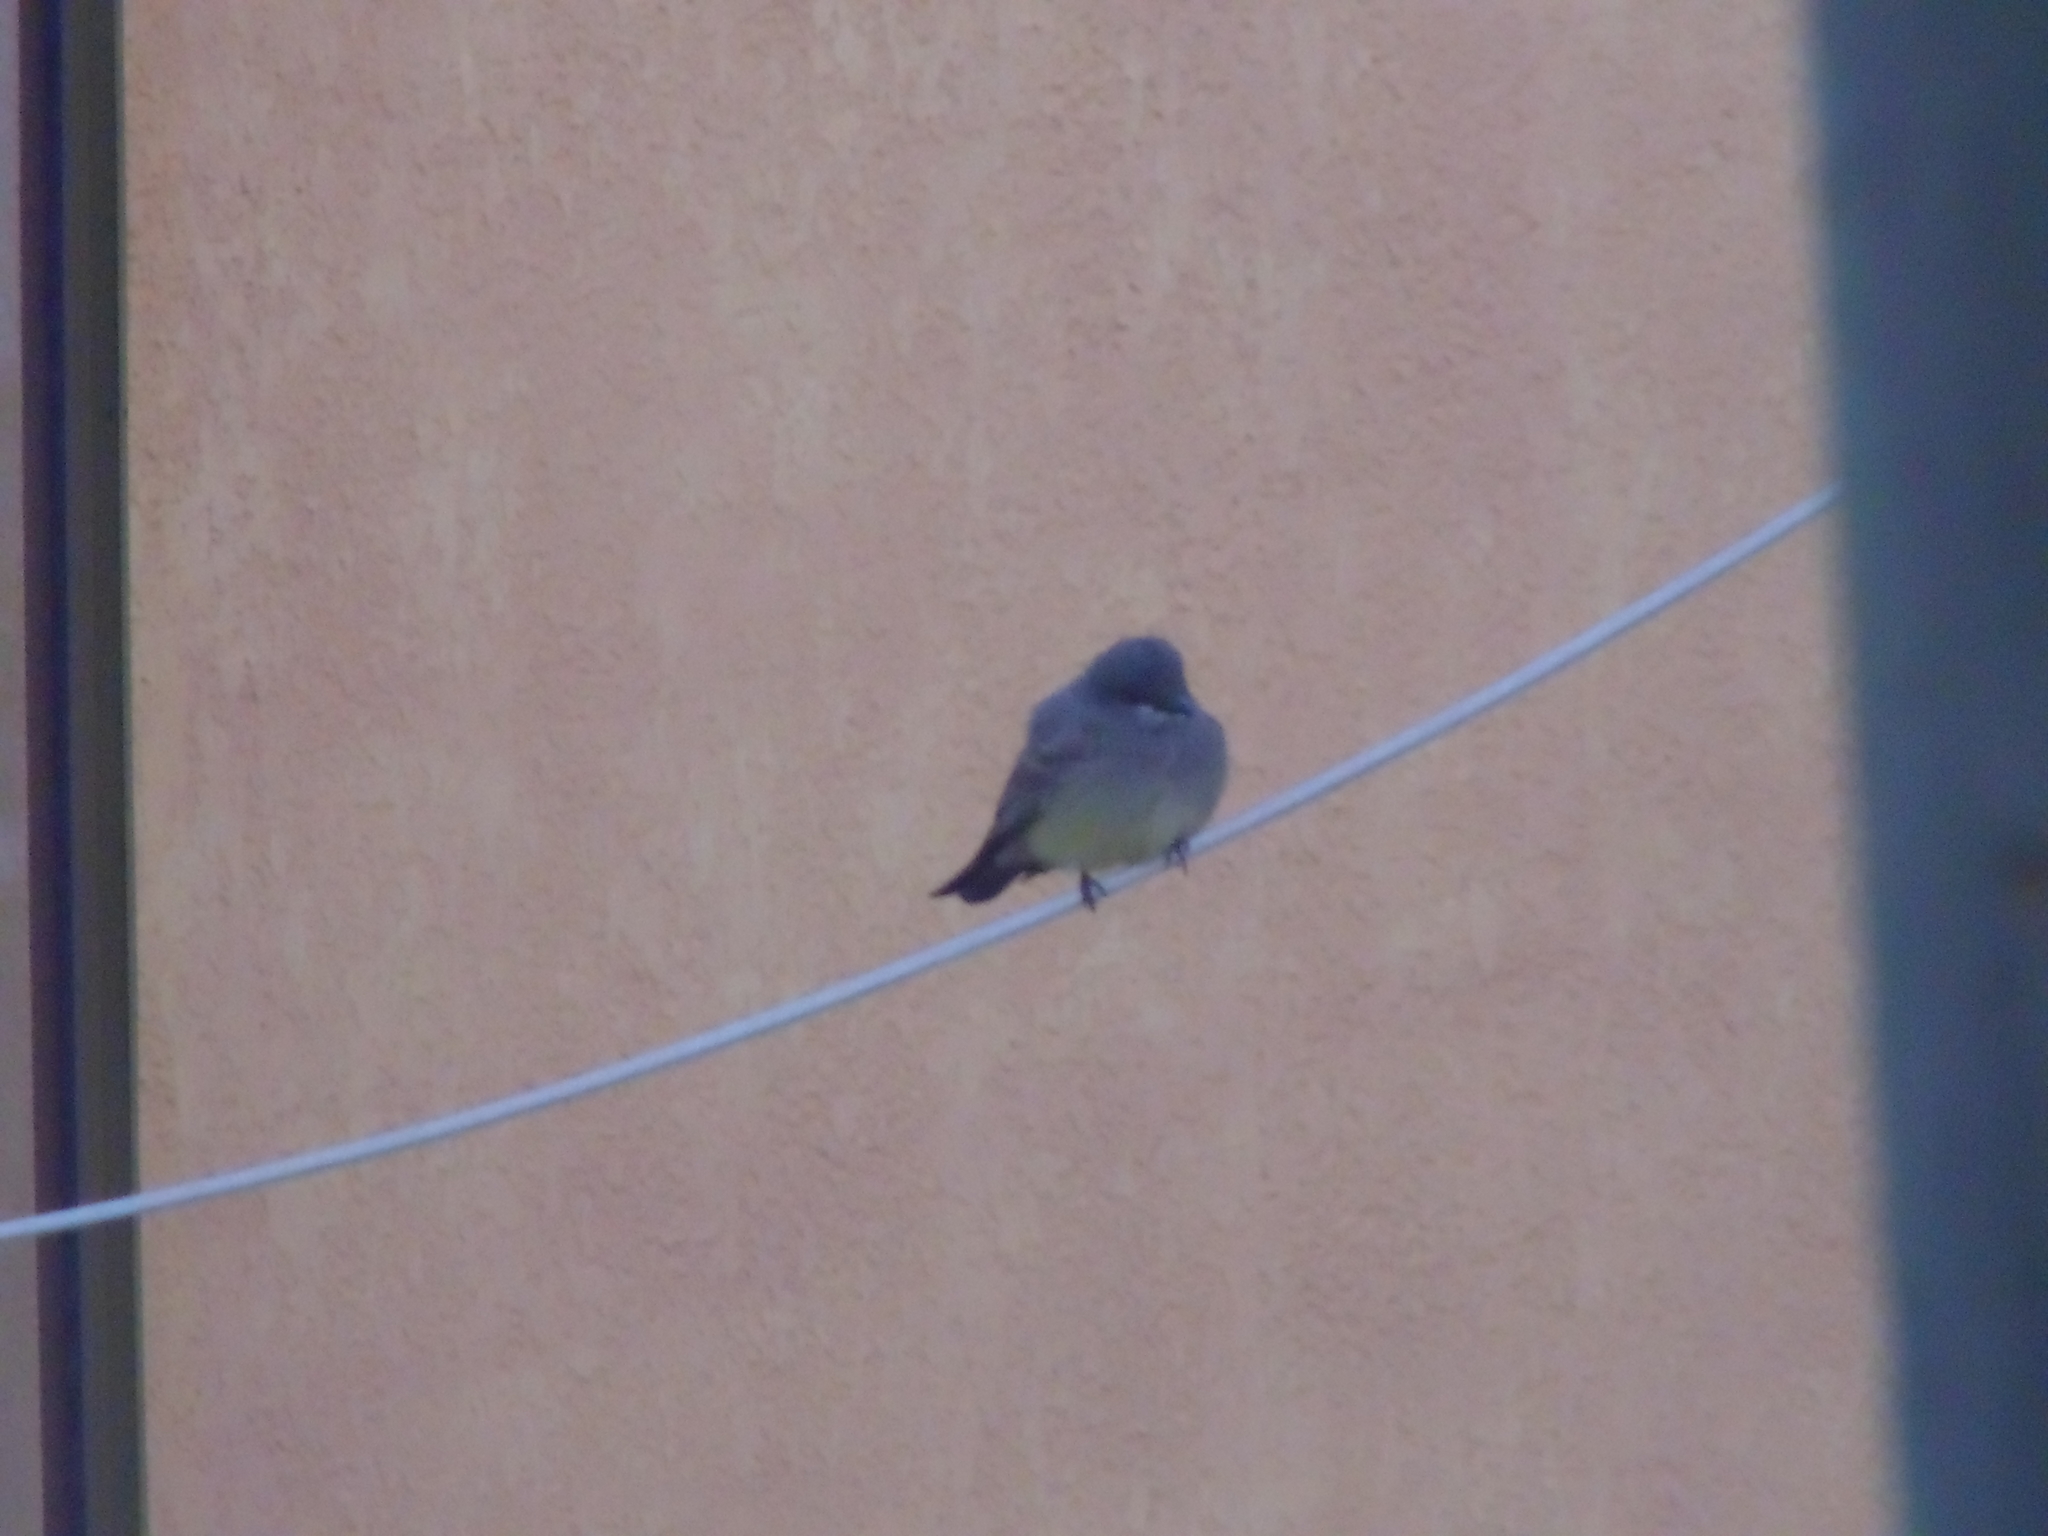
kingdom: Animalia
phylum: Chordata
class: Aves
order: Passeriformes
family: Tyrannidae
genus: Tyrannus
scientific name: Tyrannus vociferans
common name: Cassin's kingbird
